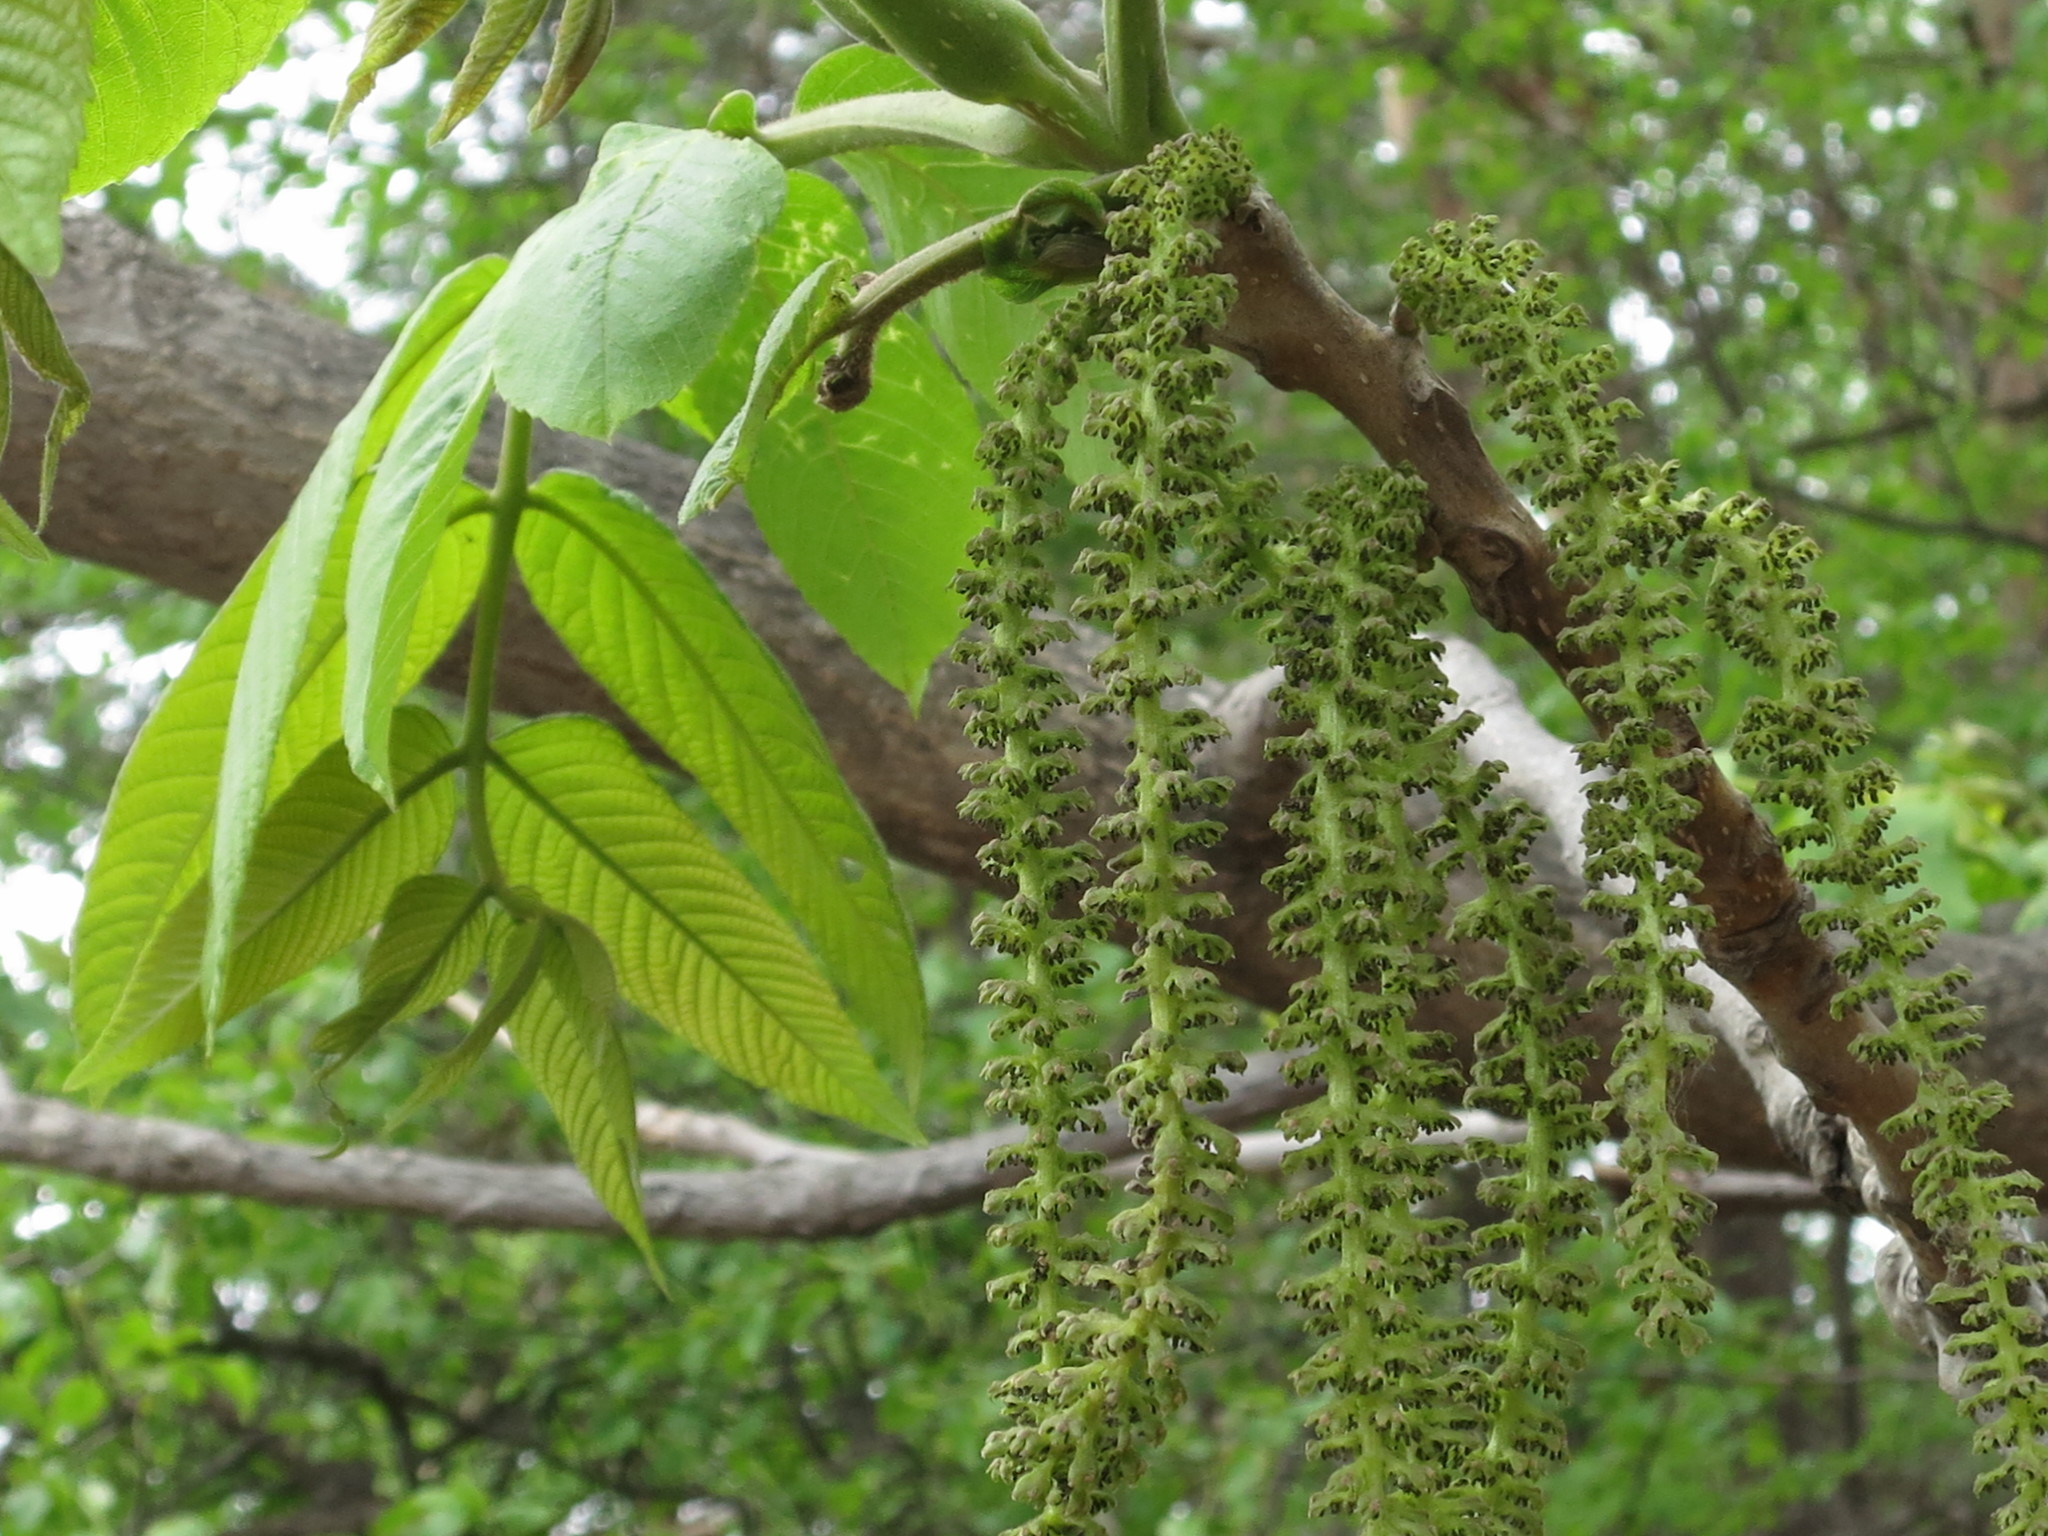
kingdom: Plantae
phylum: Tracheophyta
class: Magnoliopsida
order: Fagales
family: Juglandaceae
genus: Juglans
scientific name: Juglans mandshurica
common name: Manchurian walnut
